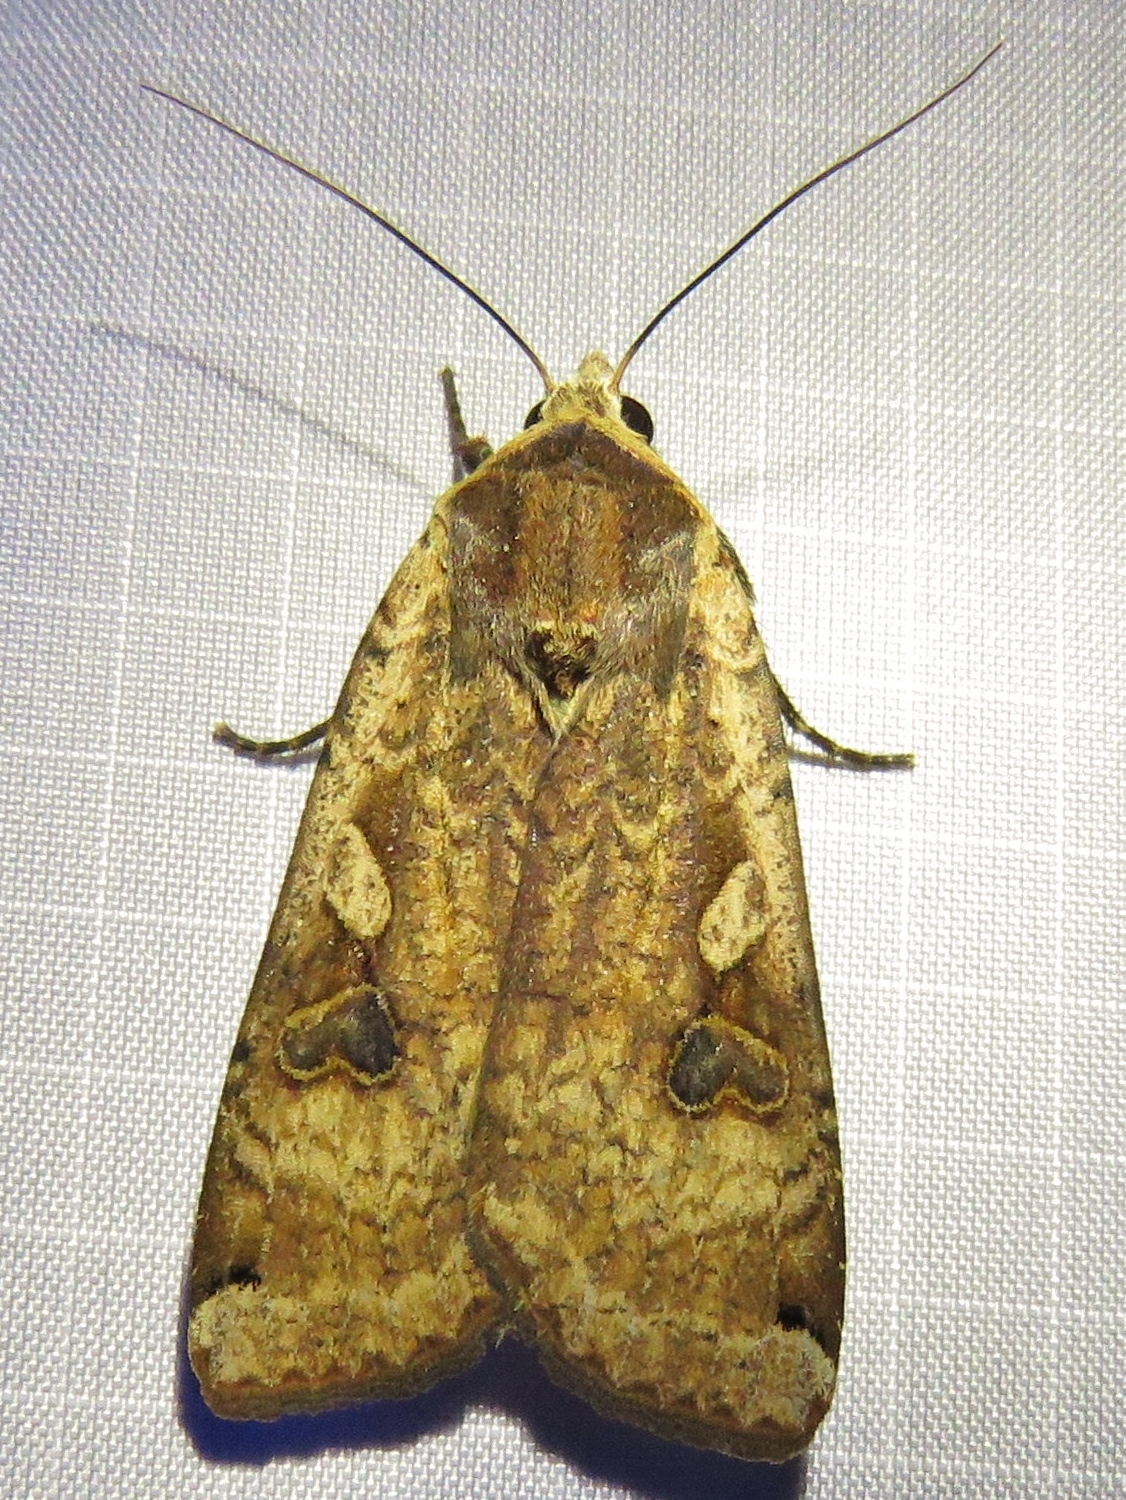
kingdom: Animalia
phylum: Arthropoda
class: Insecta
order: Lepidoptera
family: Noctuidae
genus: Noctua
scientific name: Noctua pronuba
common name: Large yellow underwing
